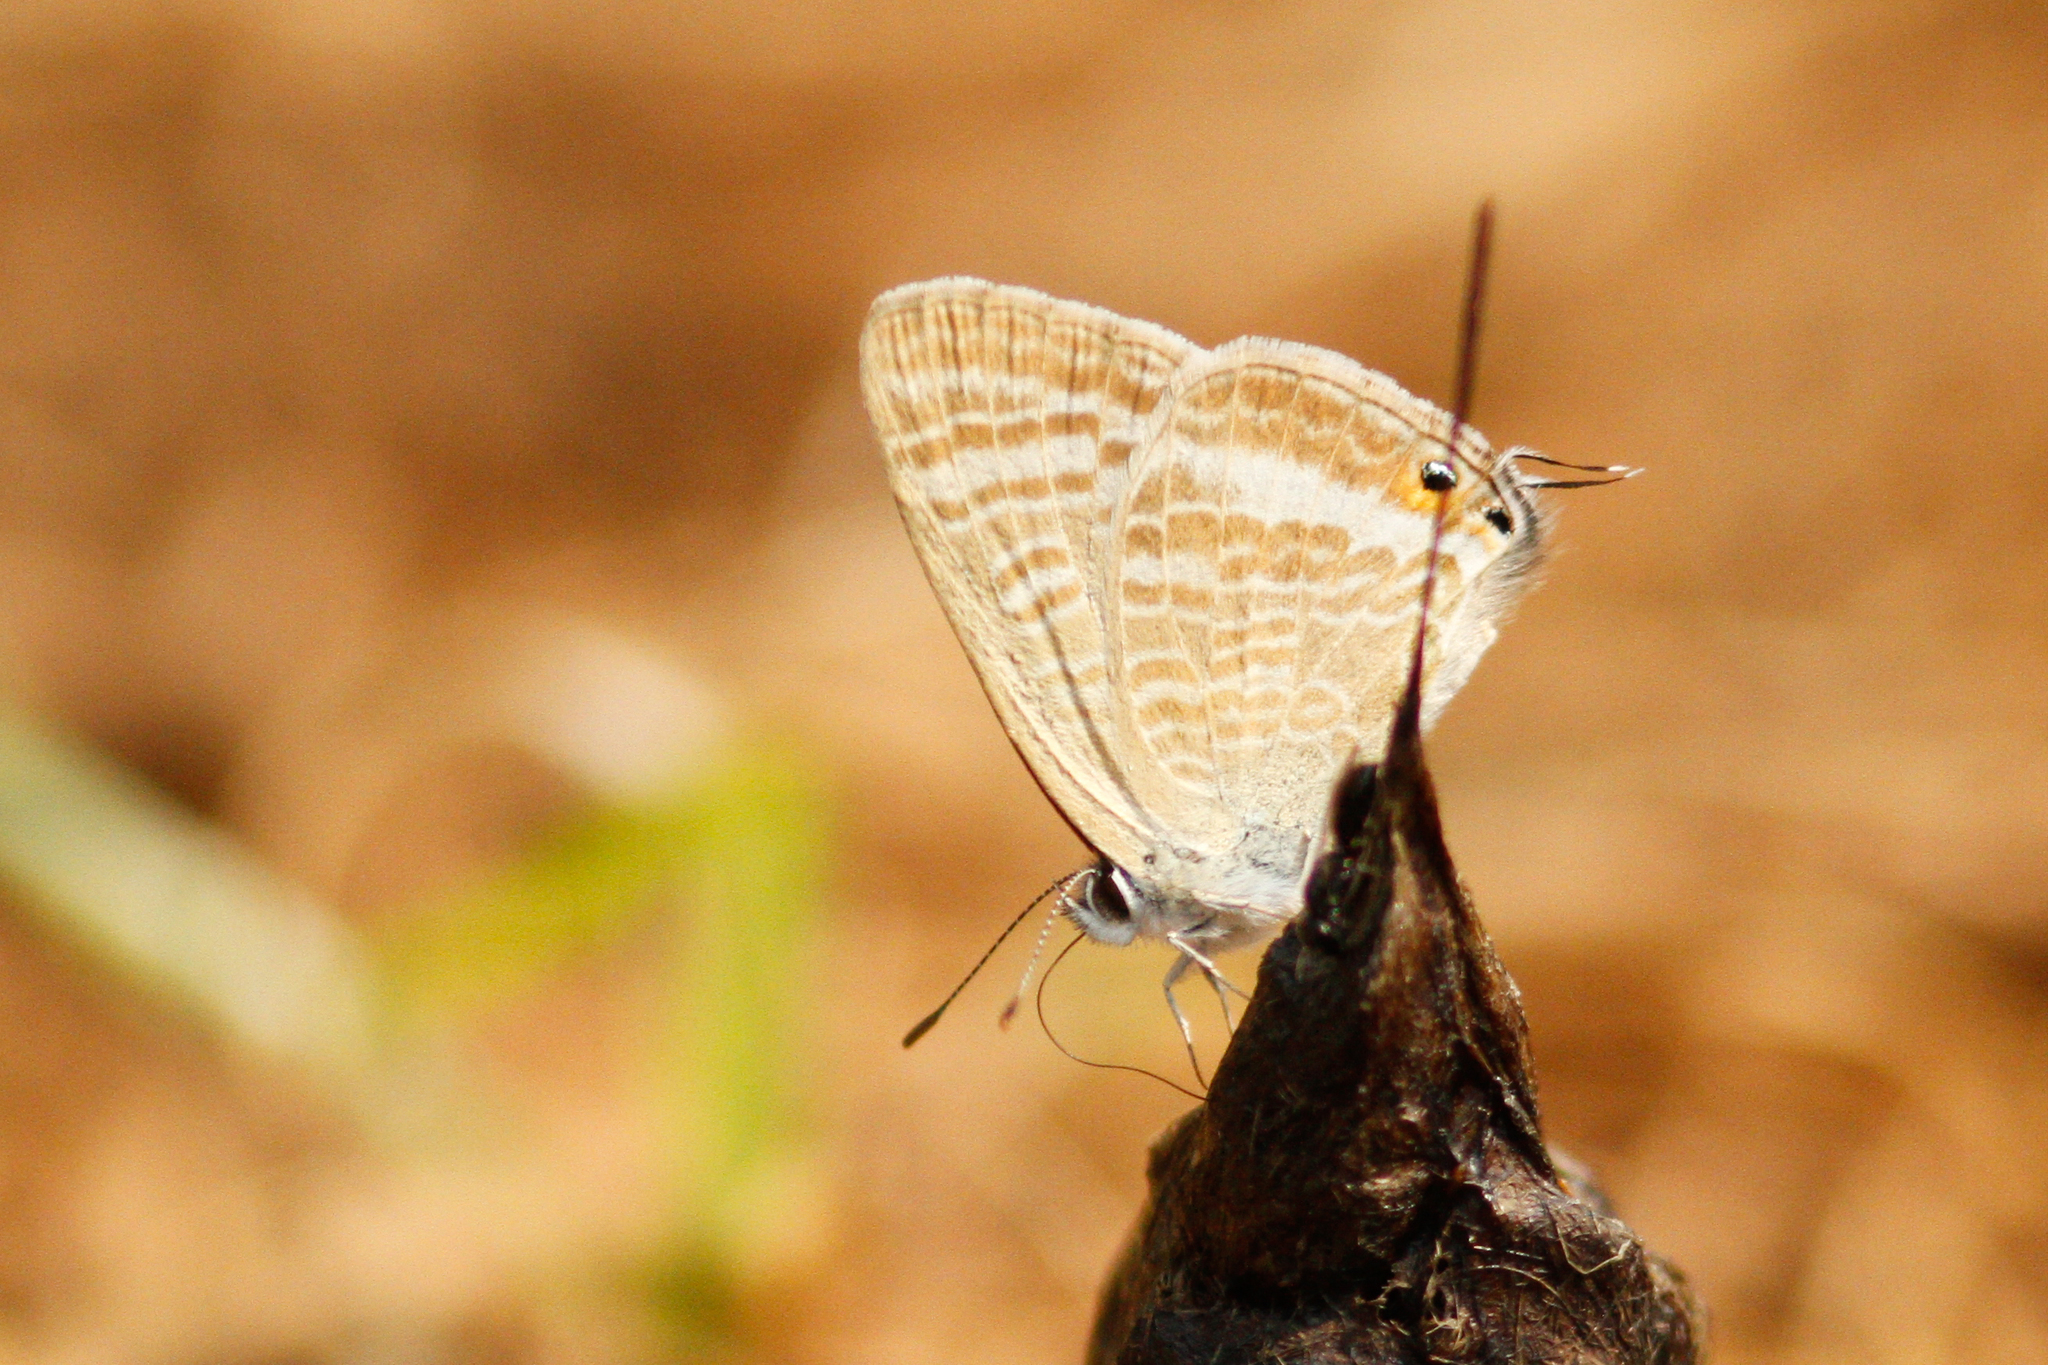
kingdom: Animalia
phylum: Arthropoda
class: Insecta
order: Lepidoptera
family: Lycaenidae
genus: Lampides
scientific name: Lampides boeticus
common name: Long-tailed blue
